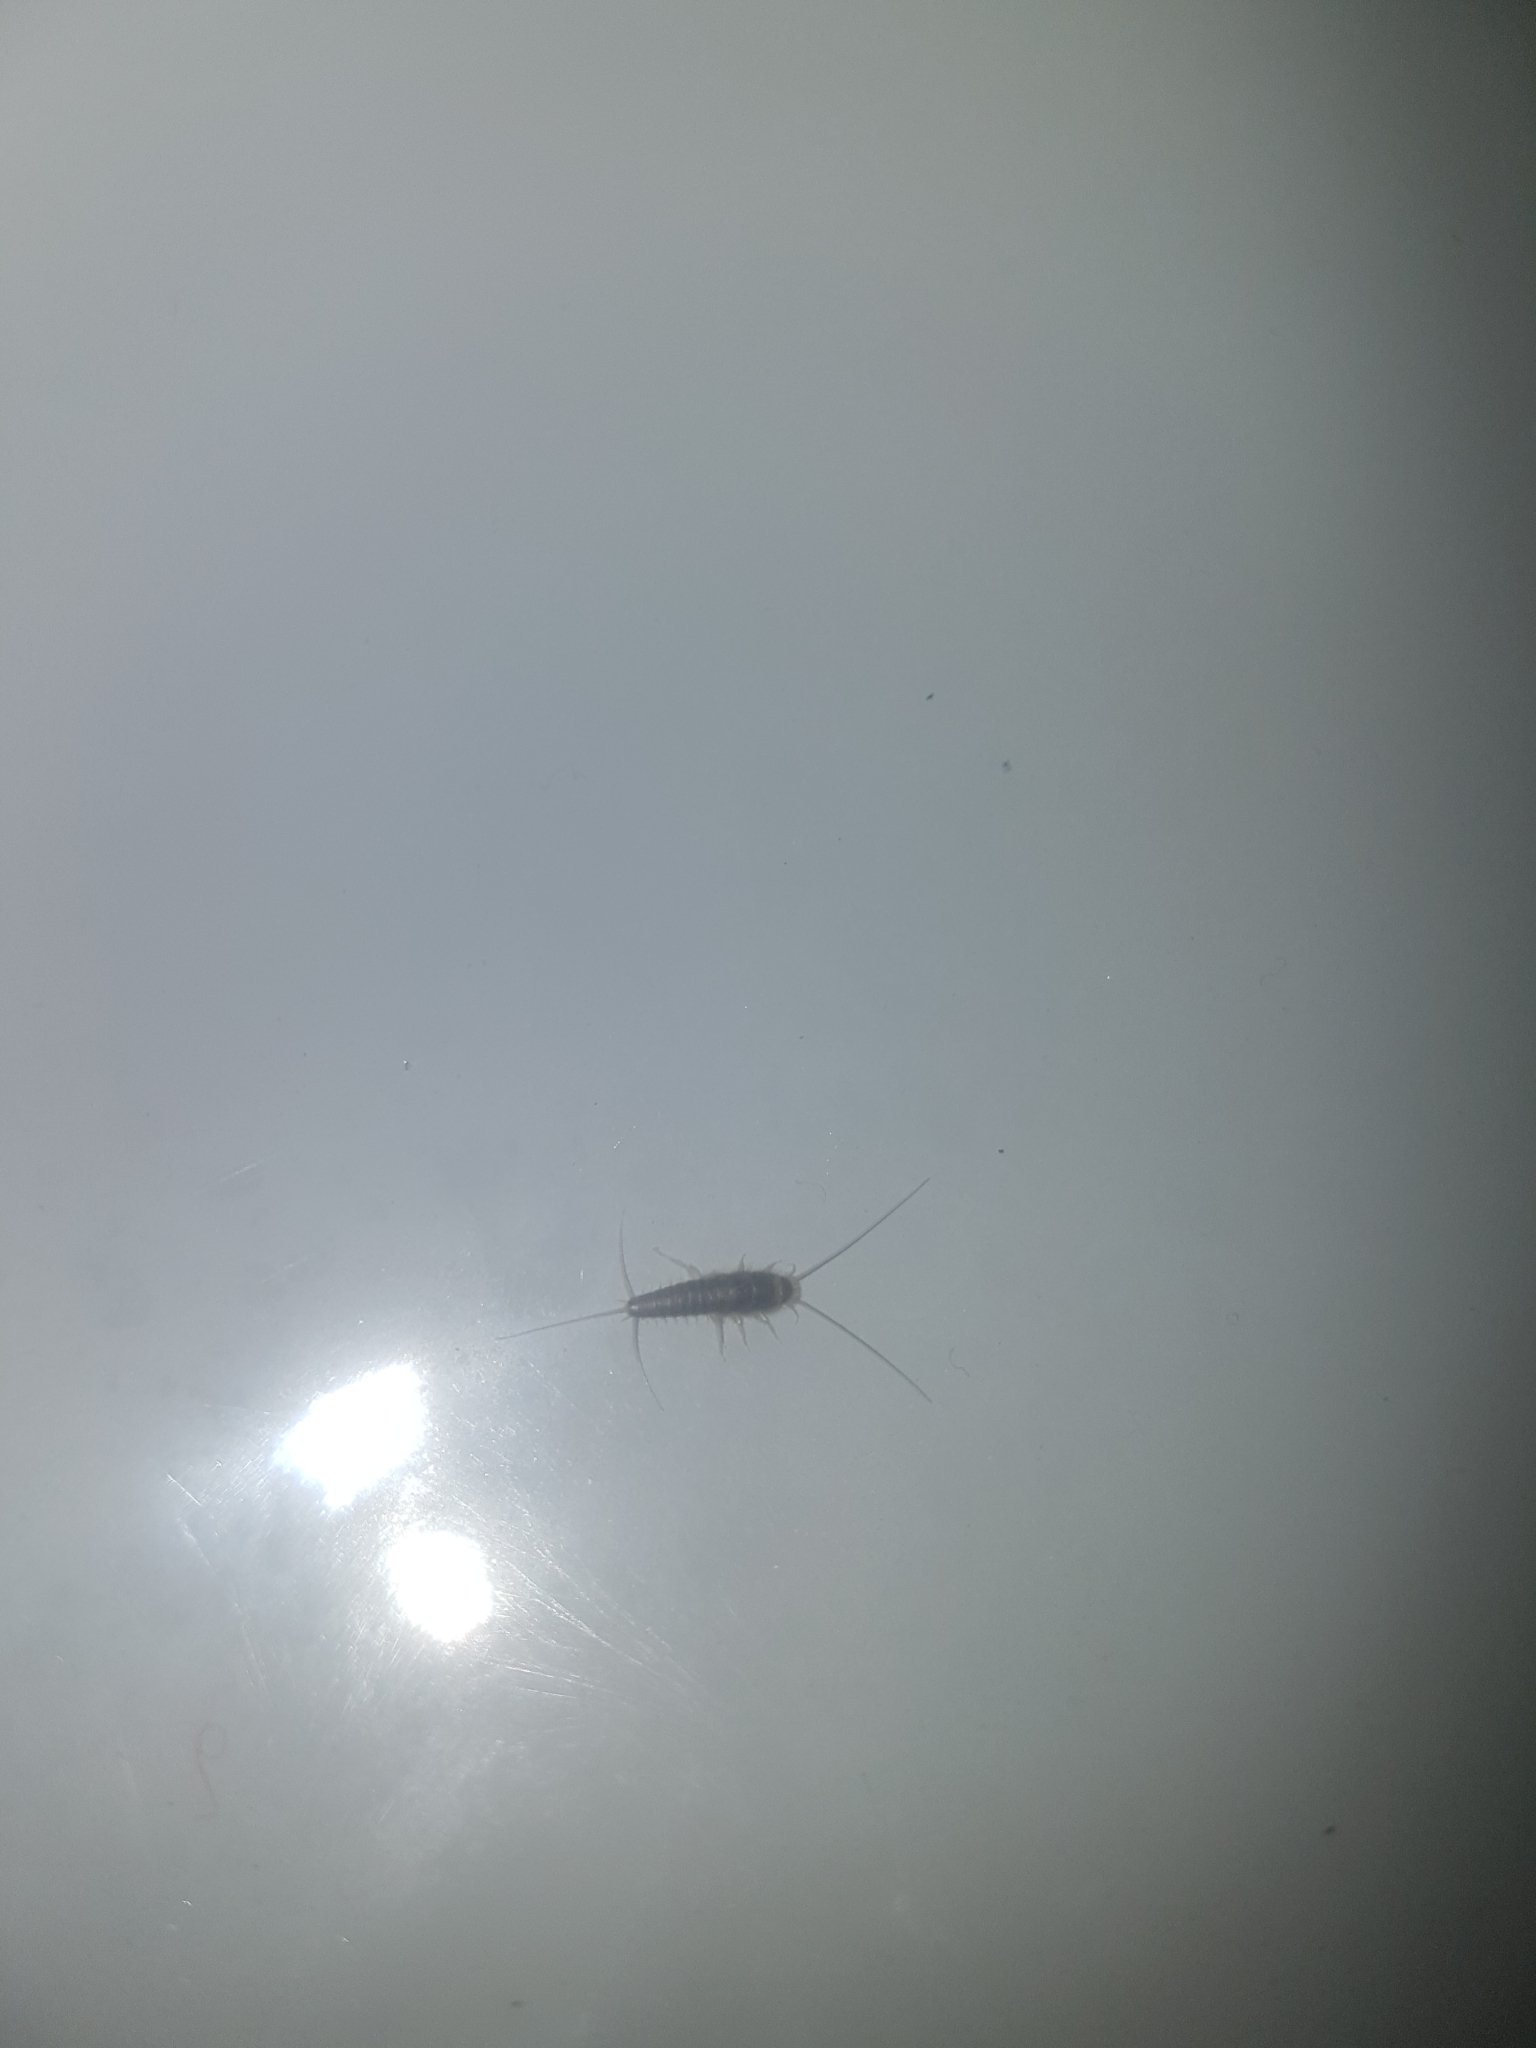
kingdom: Animalia
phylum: Arthropoda
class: Insecta
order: Zygentoma
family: Lepismatidae
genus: Ctenolepisma
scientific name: Ctenolepisma longicaudatum
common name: Silverfish
